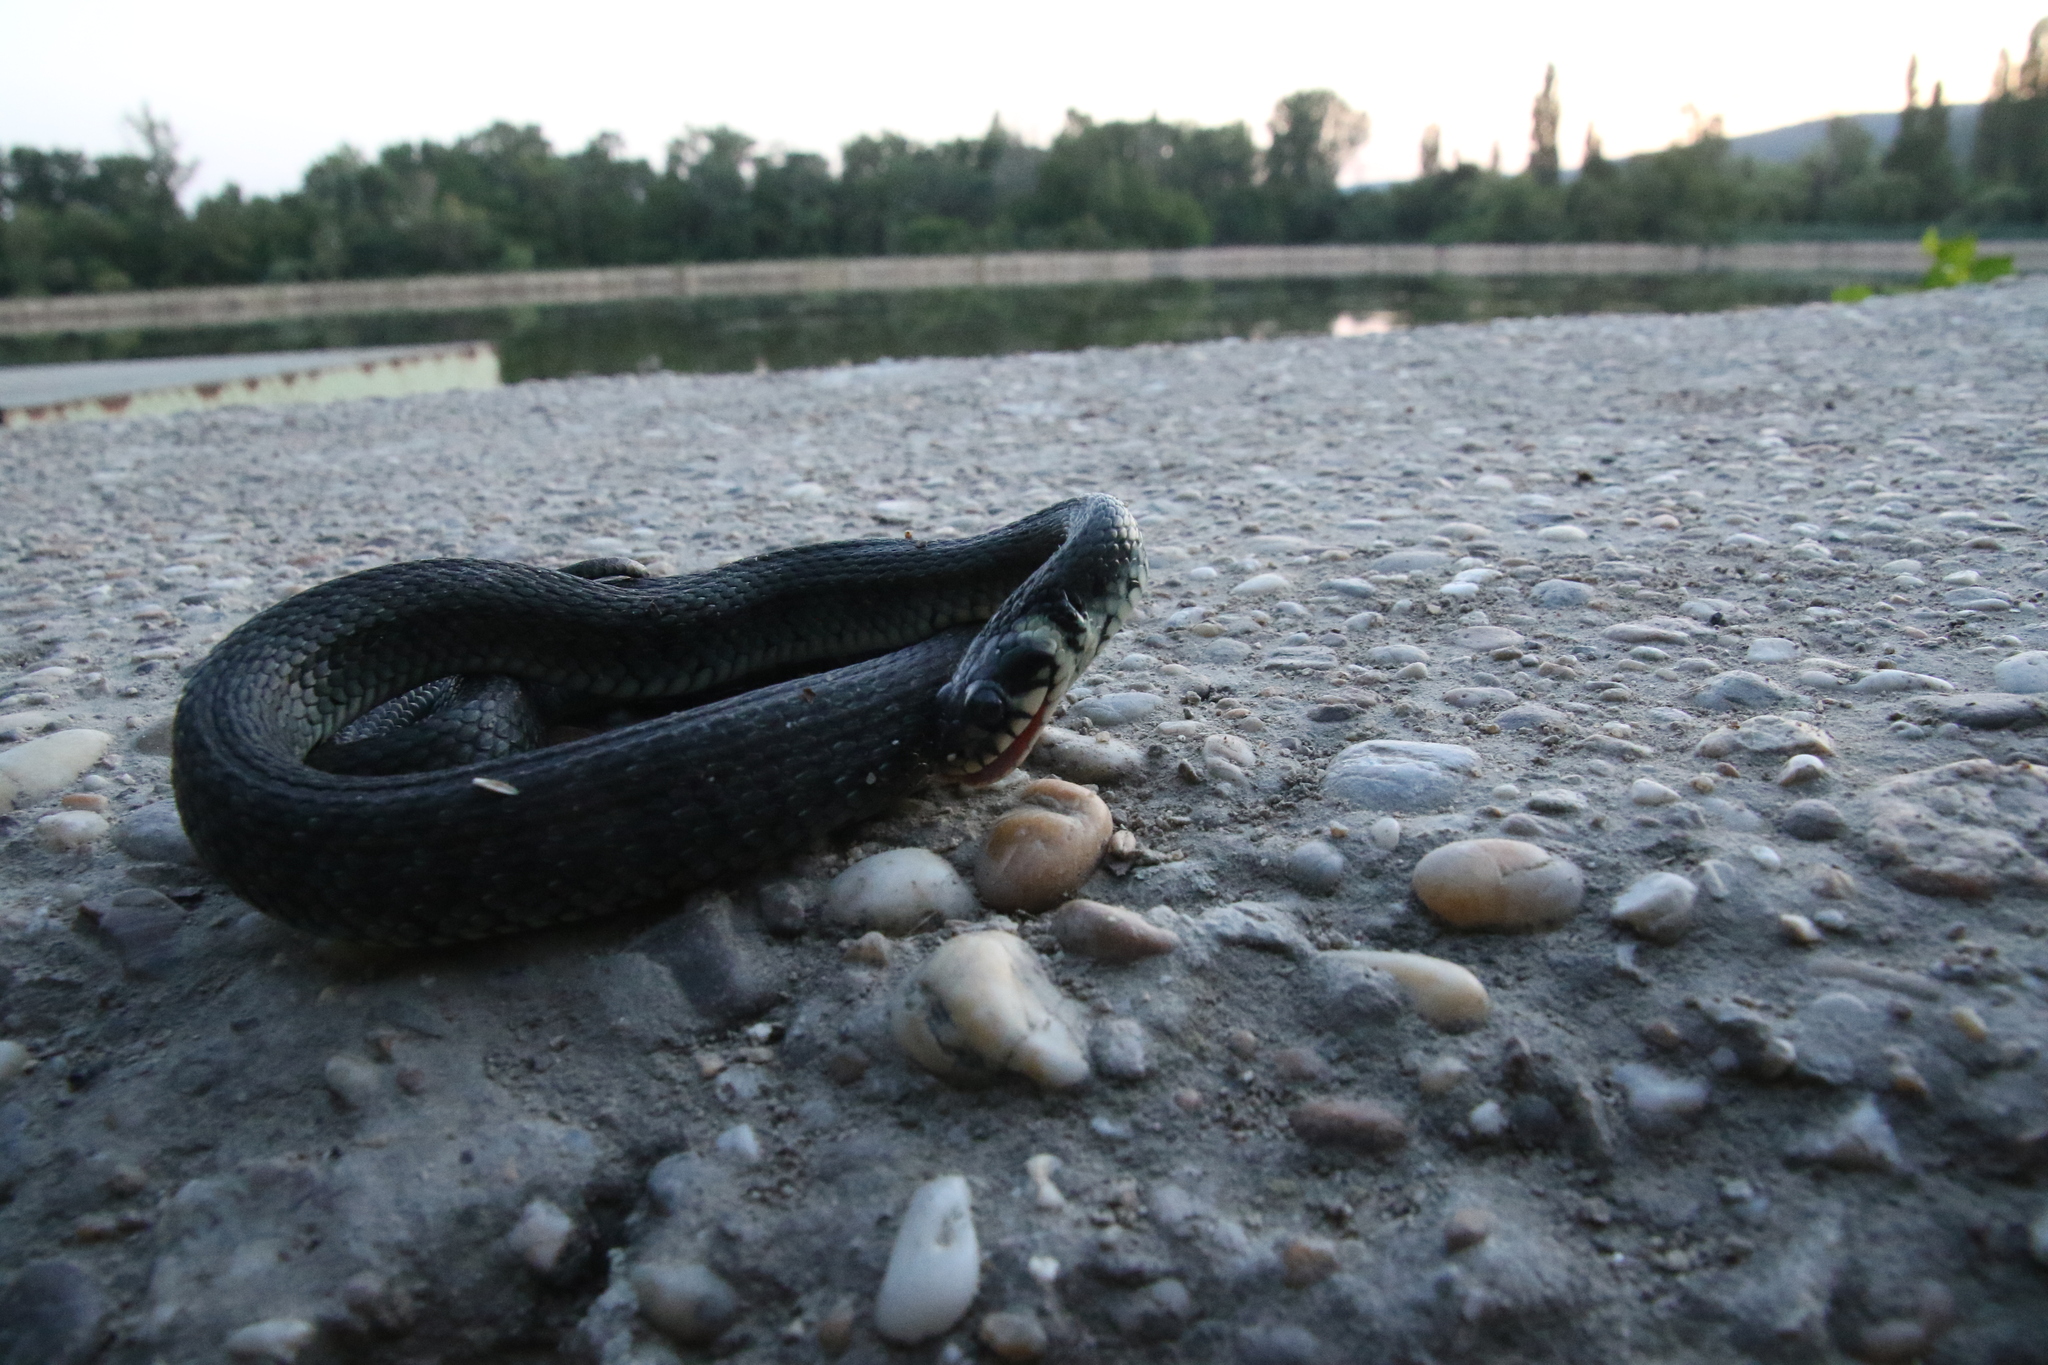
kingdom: Animalia
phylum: Chordata
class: Squamata
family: Colubridae
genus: Natrix
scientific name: Natrix natrix
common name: Grass snake
